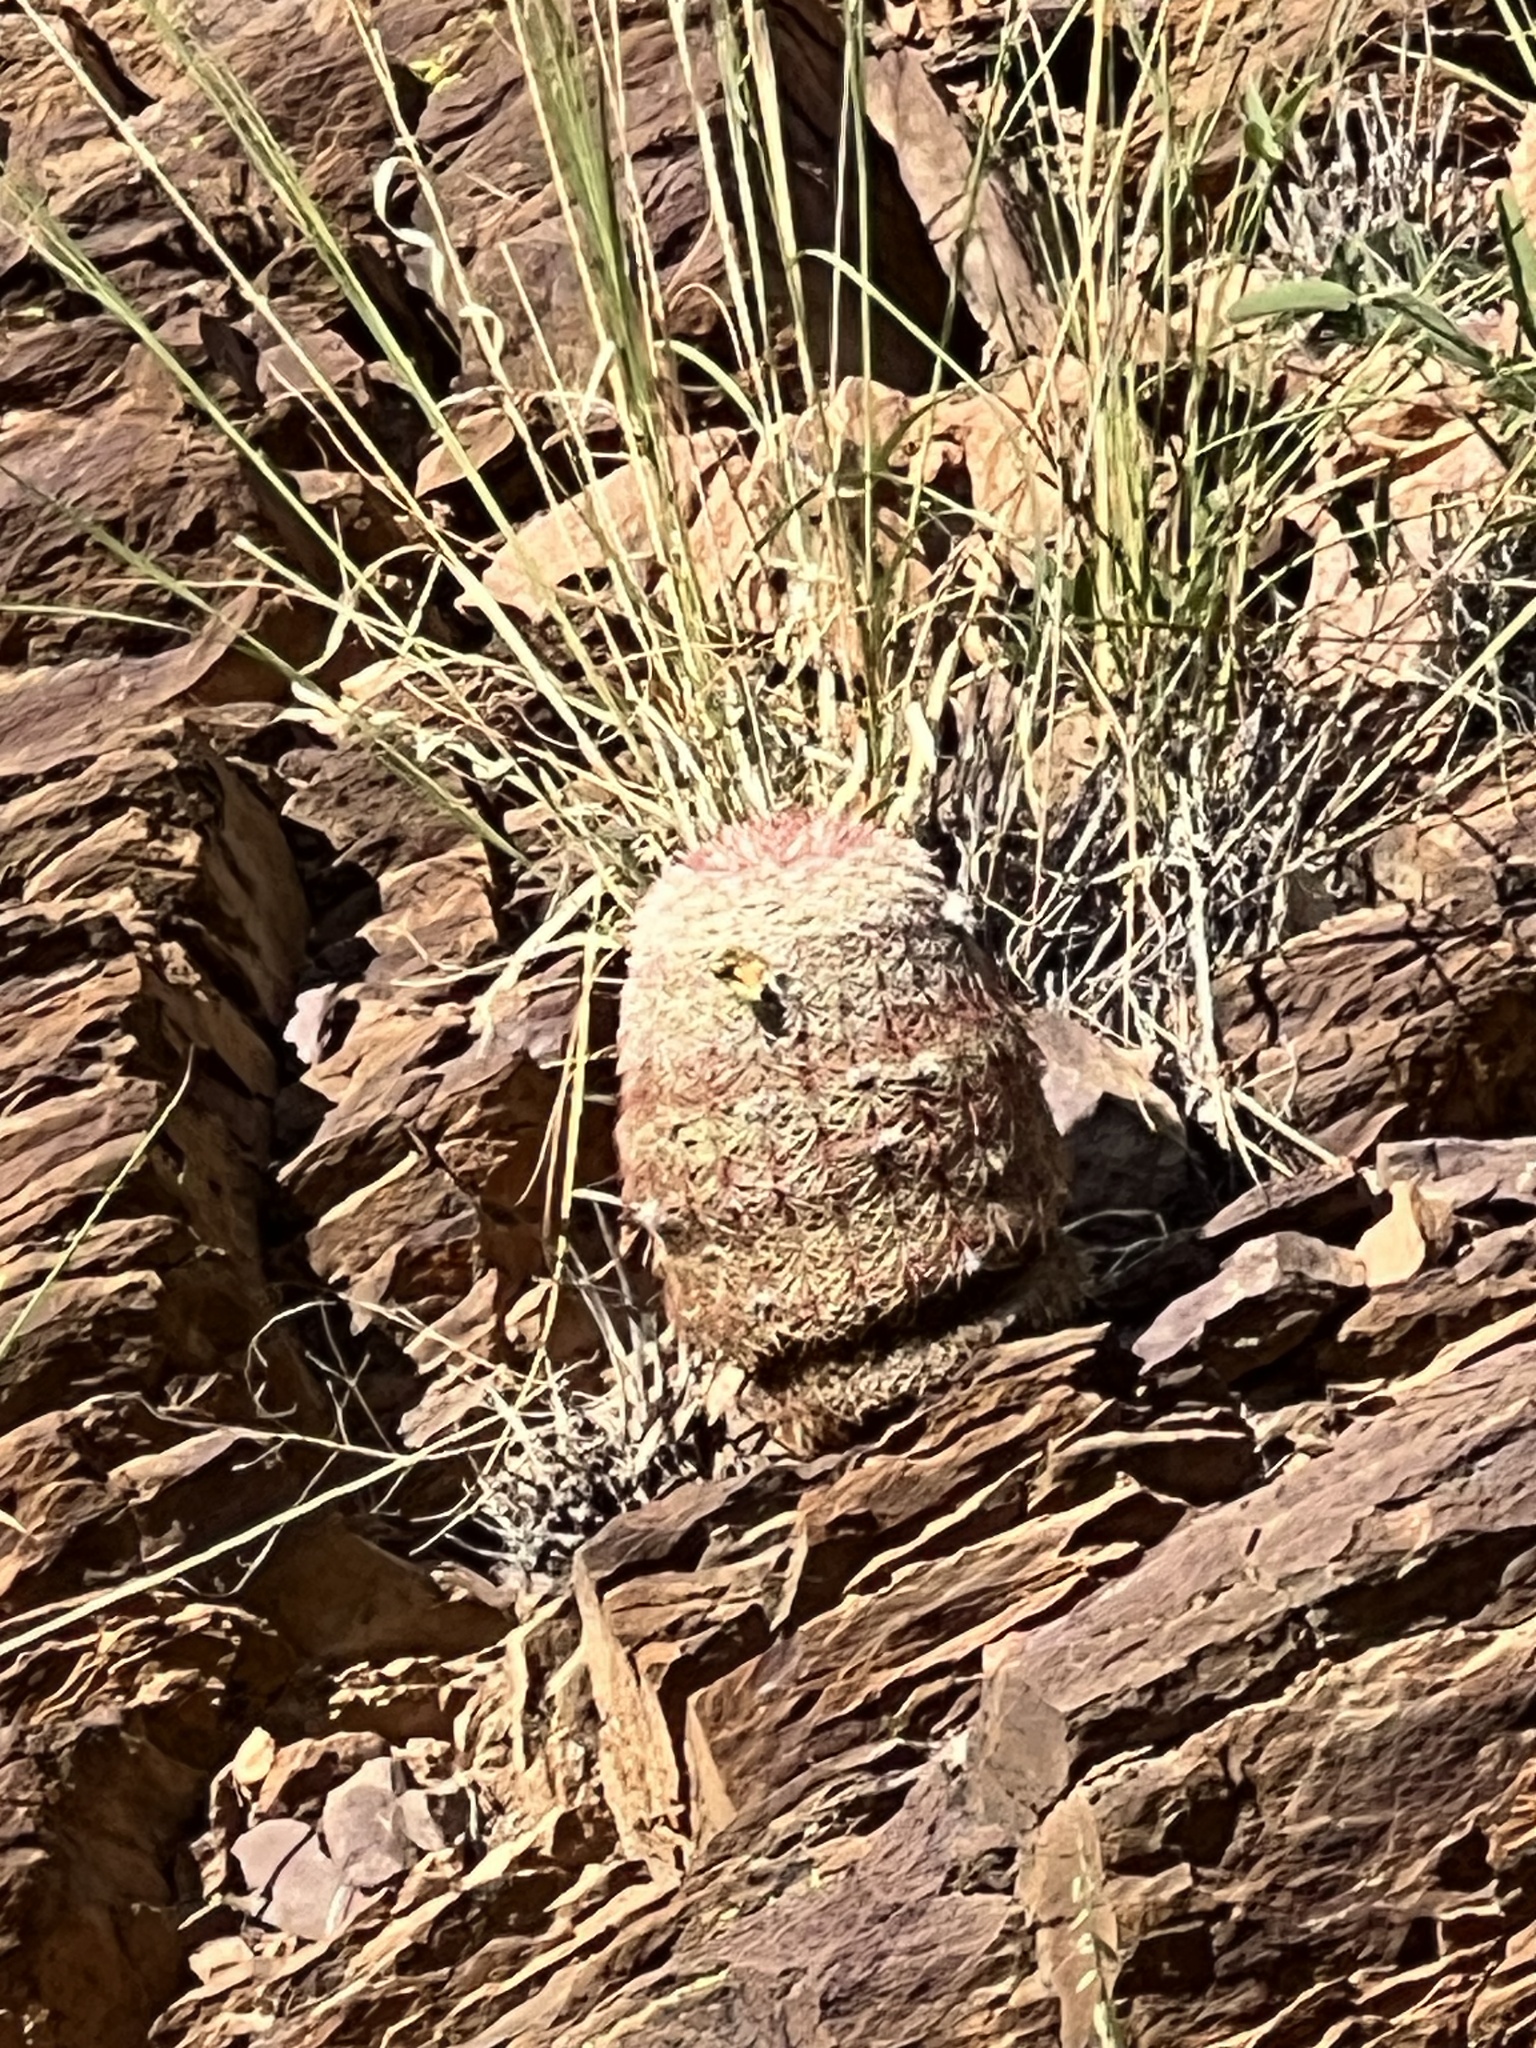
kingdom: Plantae
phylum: Tracheophyta
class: Magnoliopsida
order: Caryophyllales
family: Cactaceae
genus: Echinocereus
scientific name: Echinocereus rigidissimus
